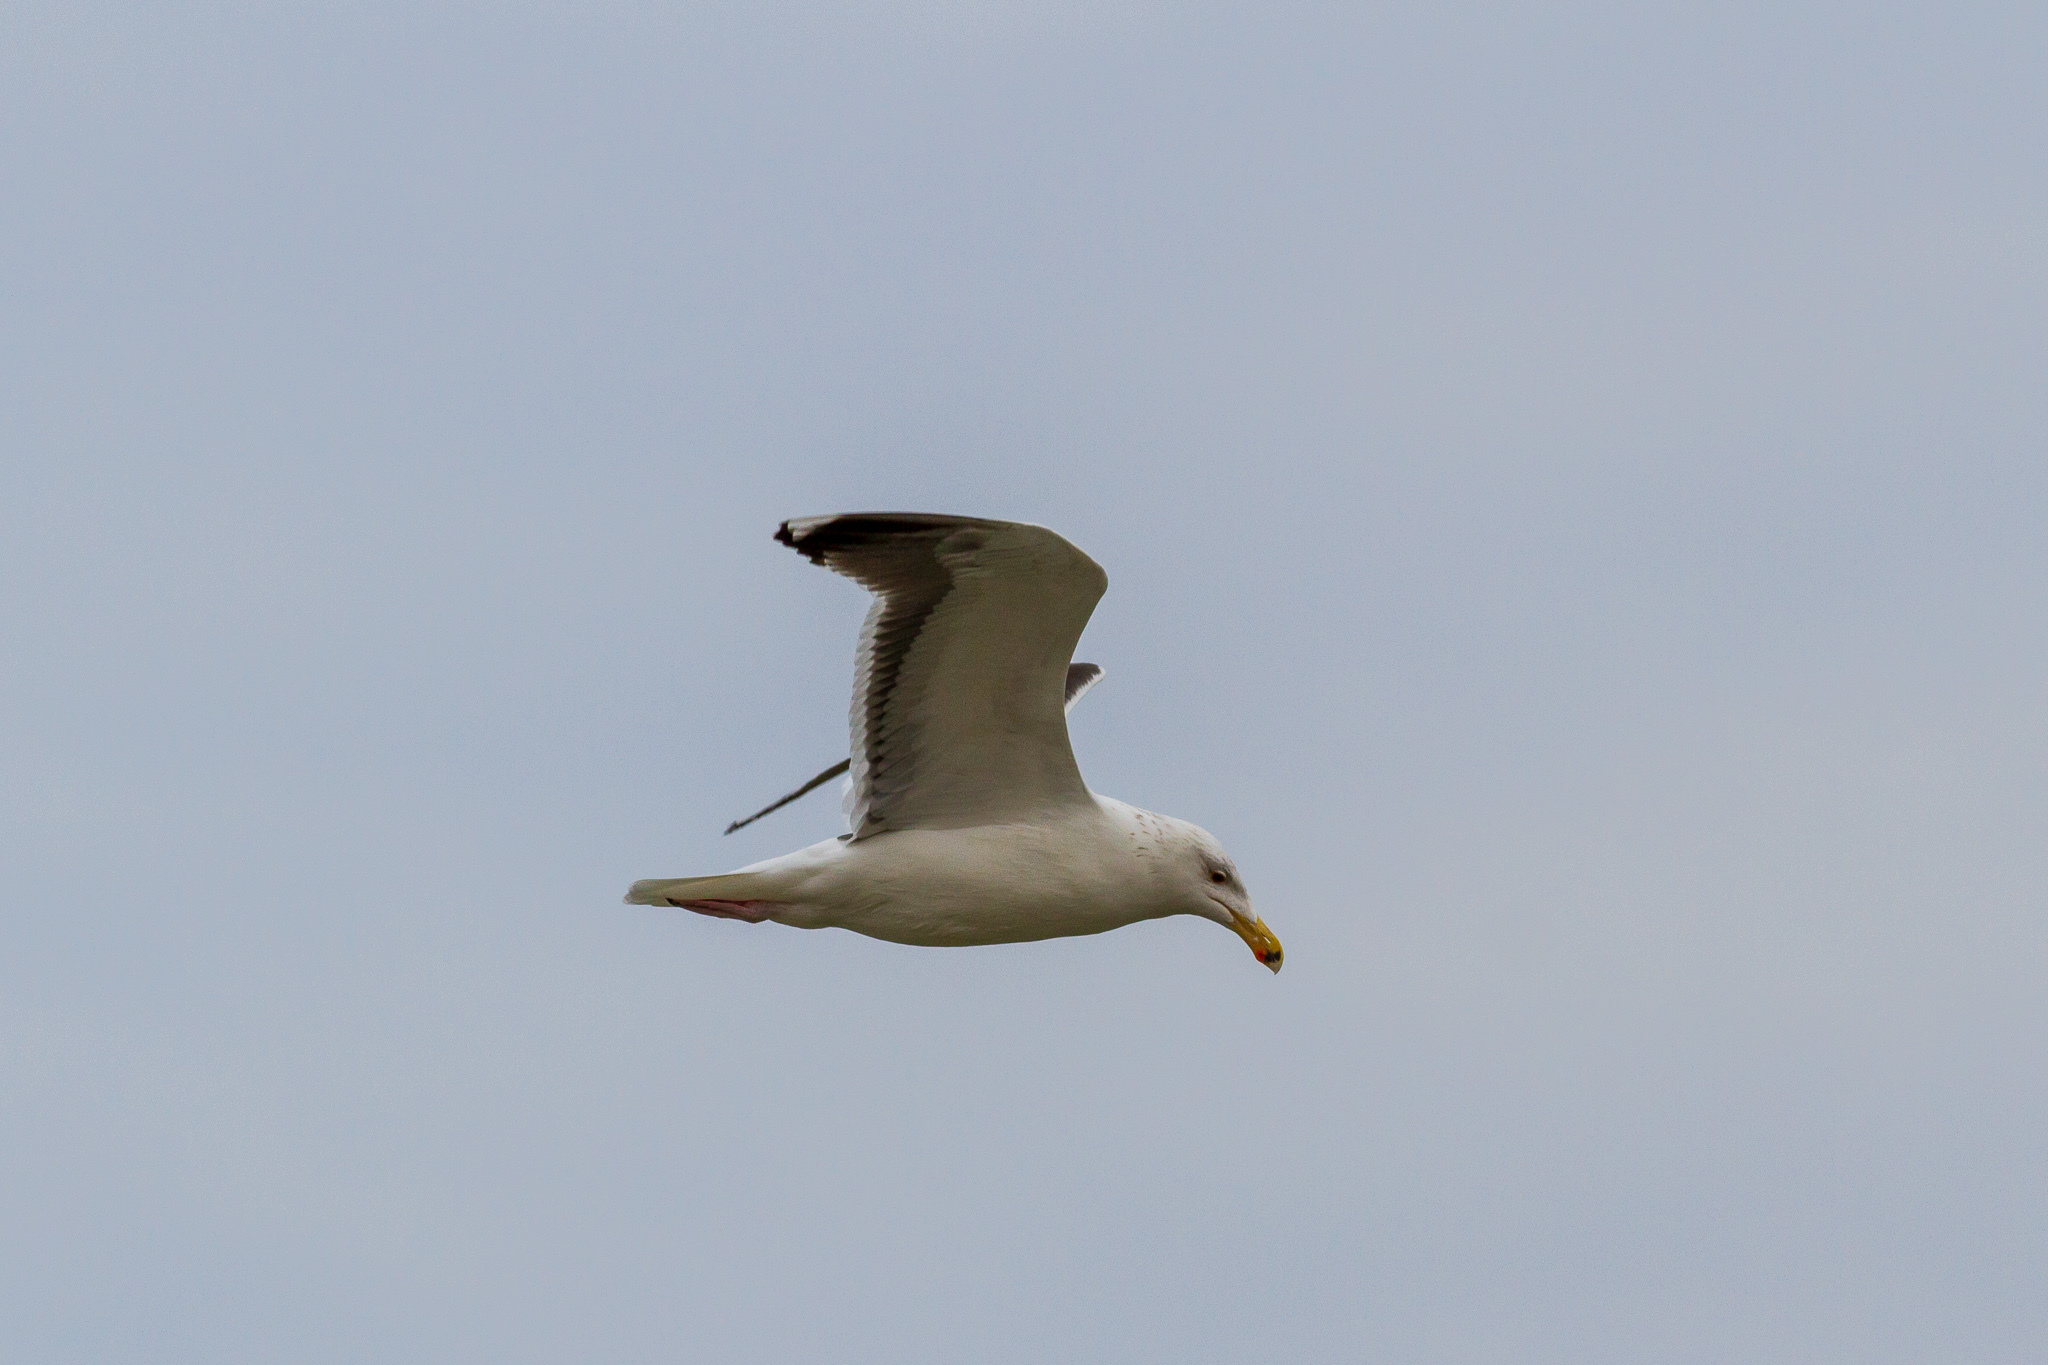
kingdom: Animalia
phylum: Chordata
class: Aves
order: Charadriiformes
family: Laridae
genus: Larus
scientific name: Larus marinus
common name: Great black-backed gull
